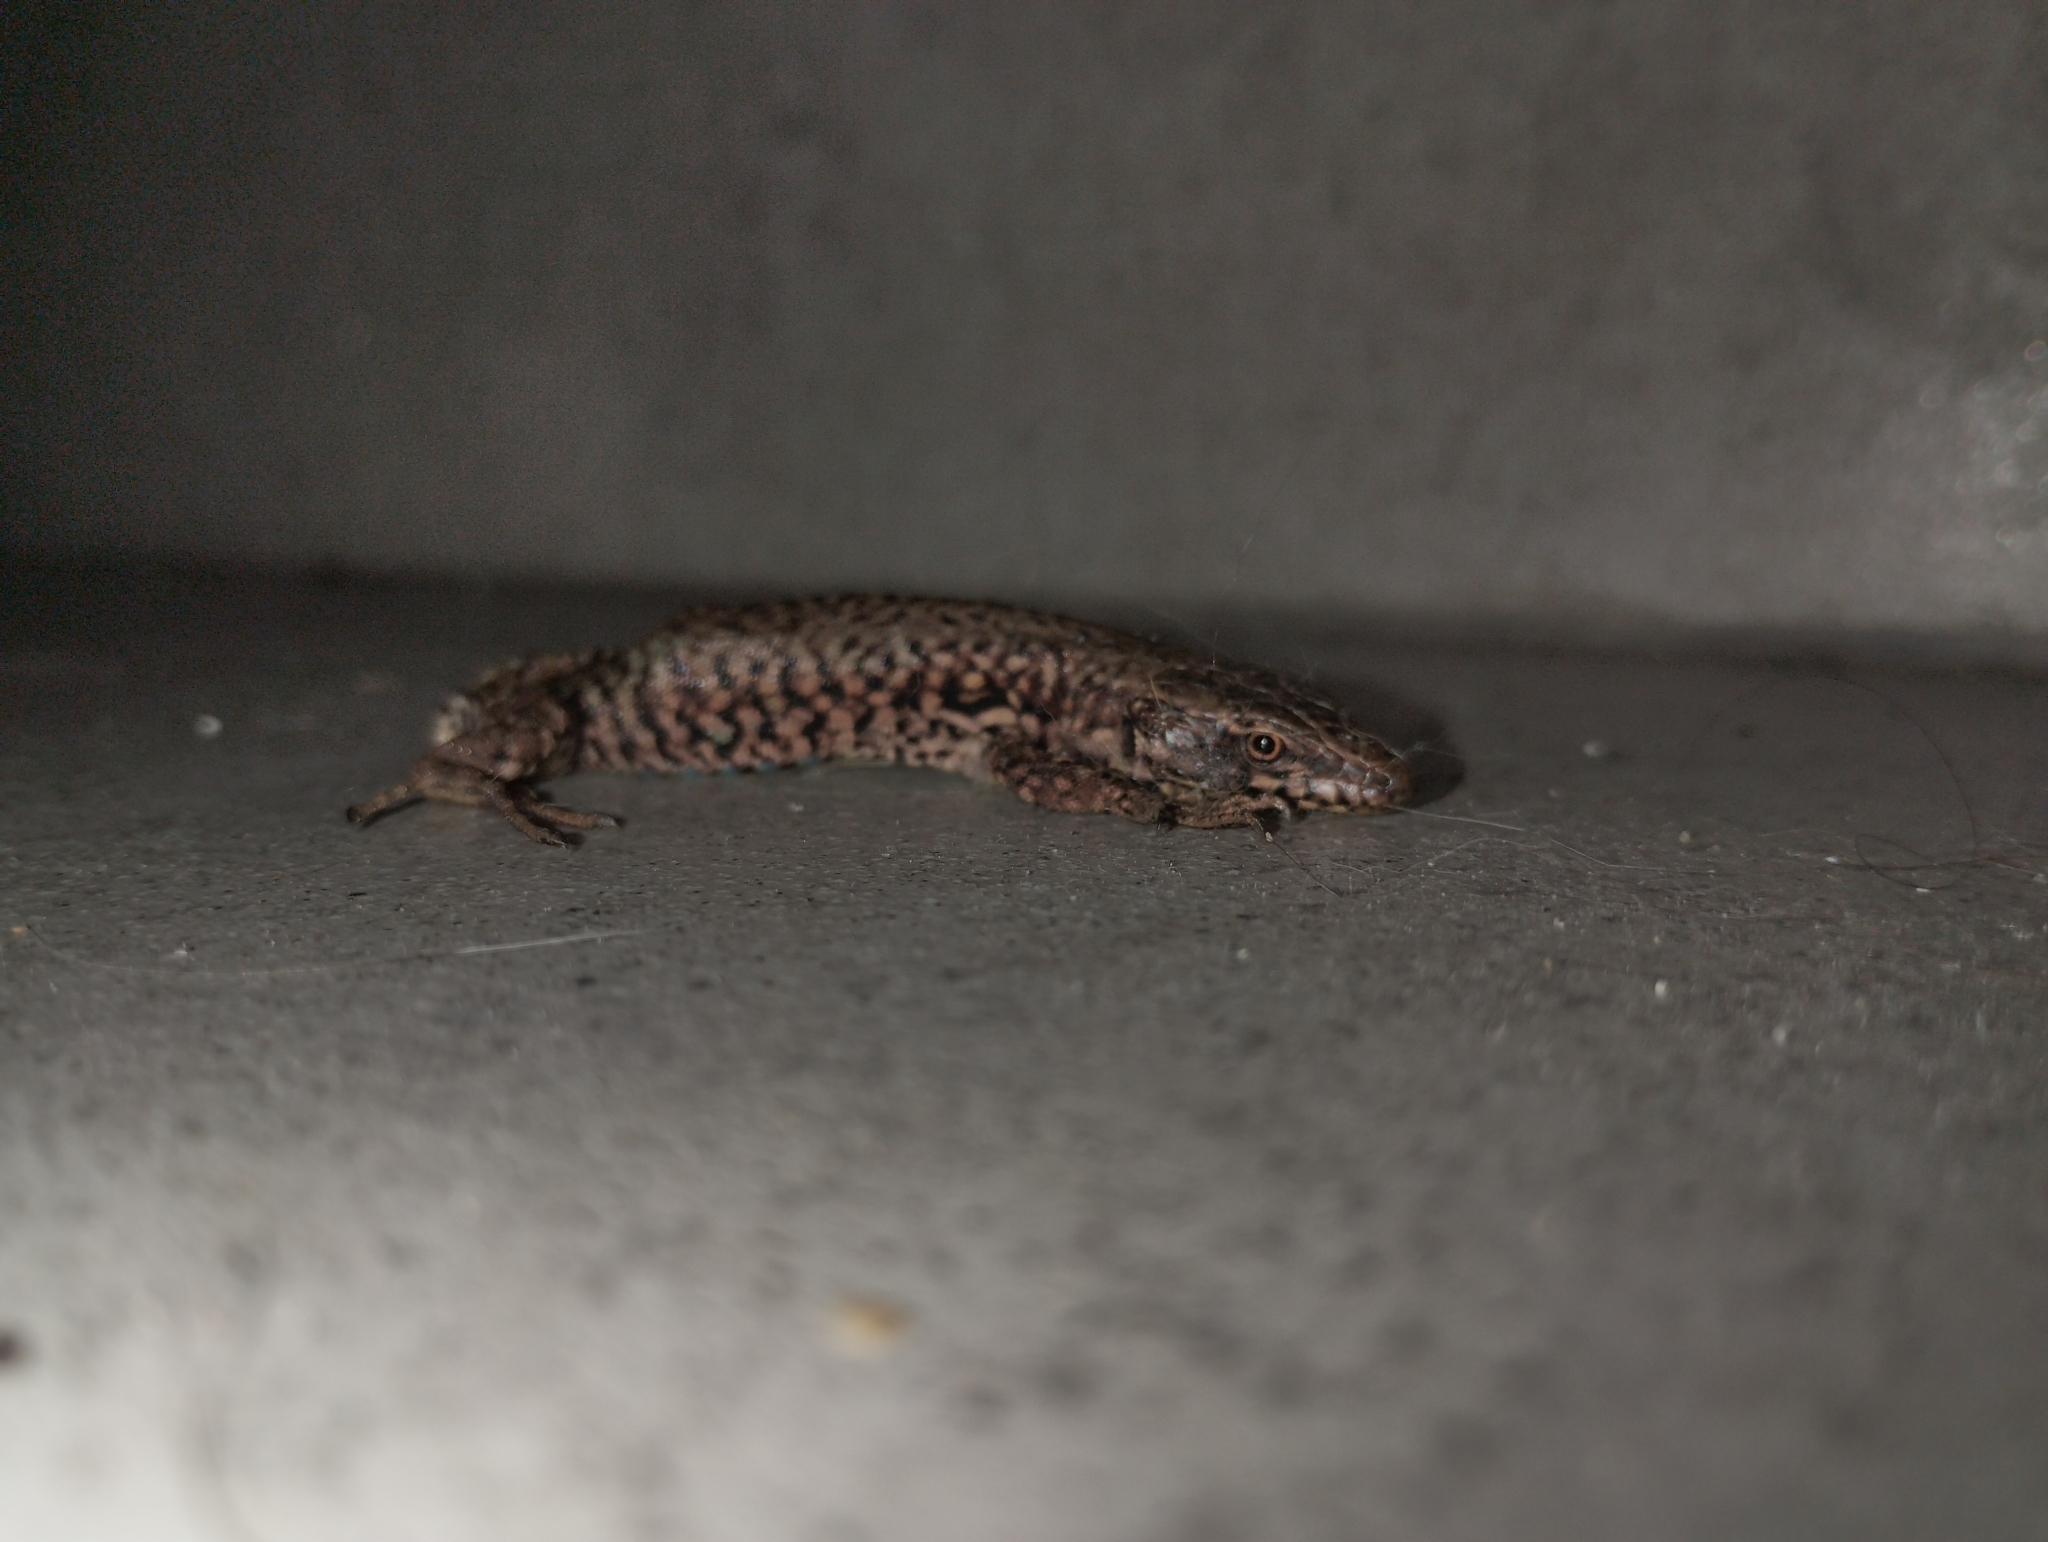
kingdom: Animalia
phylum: Chordata
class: Squamata
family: Lacertidae
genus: Podarcis
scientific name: Podarcis muralis
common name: Common wall lizard
